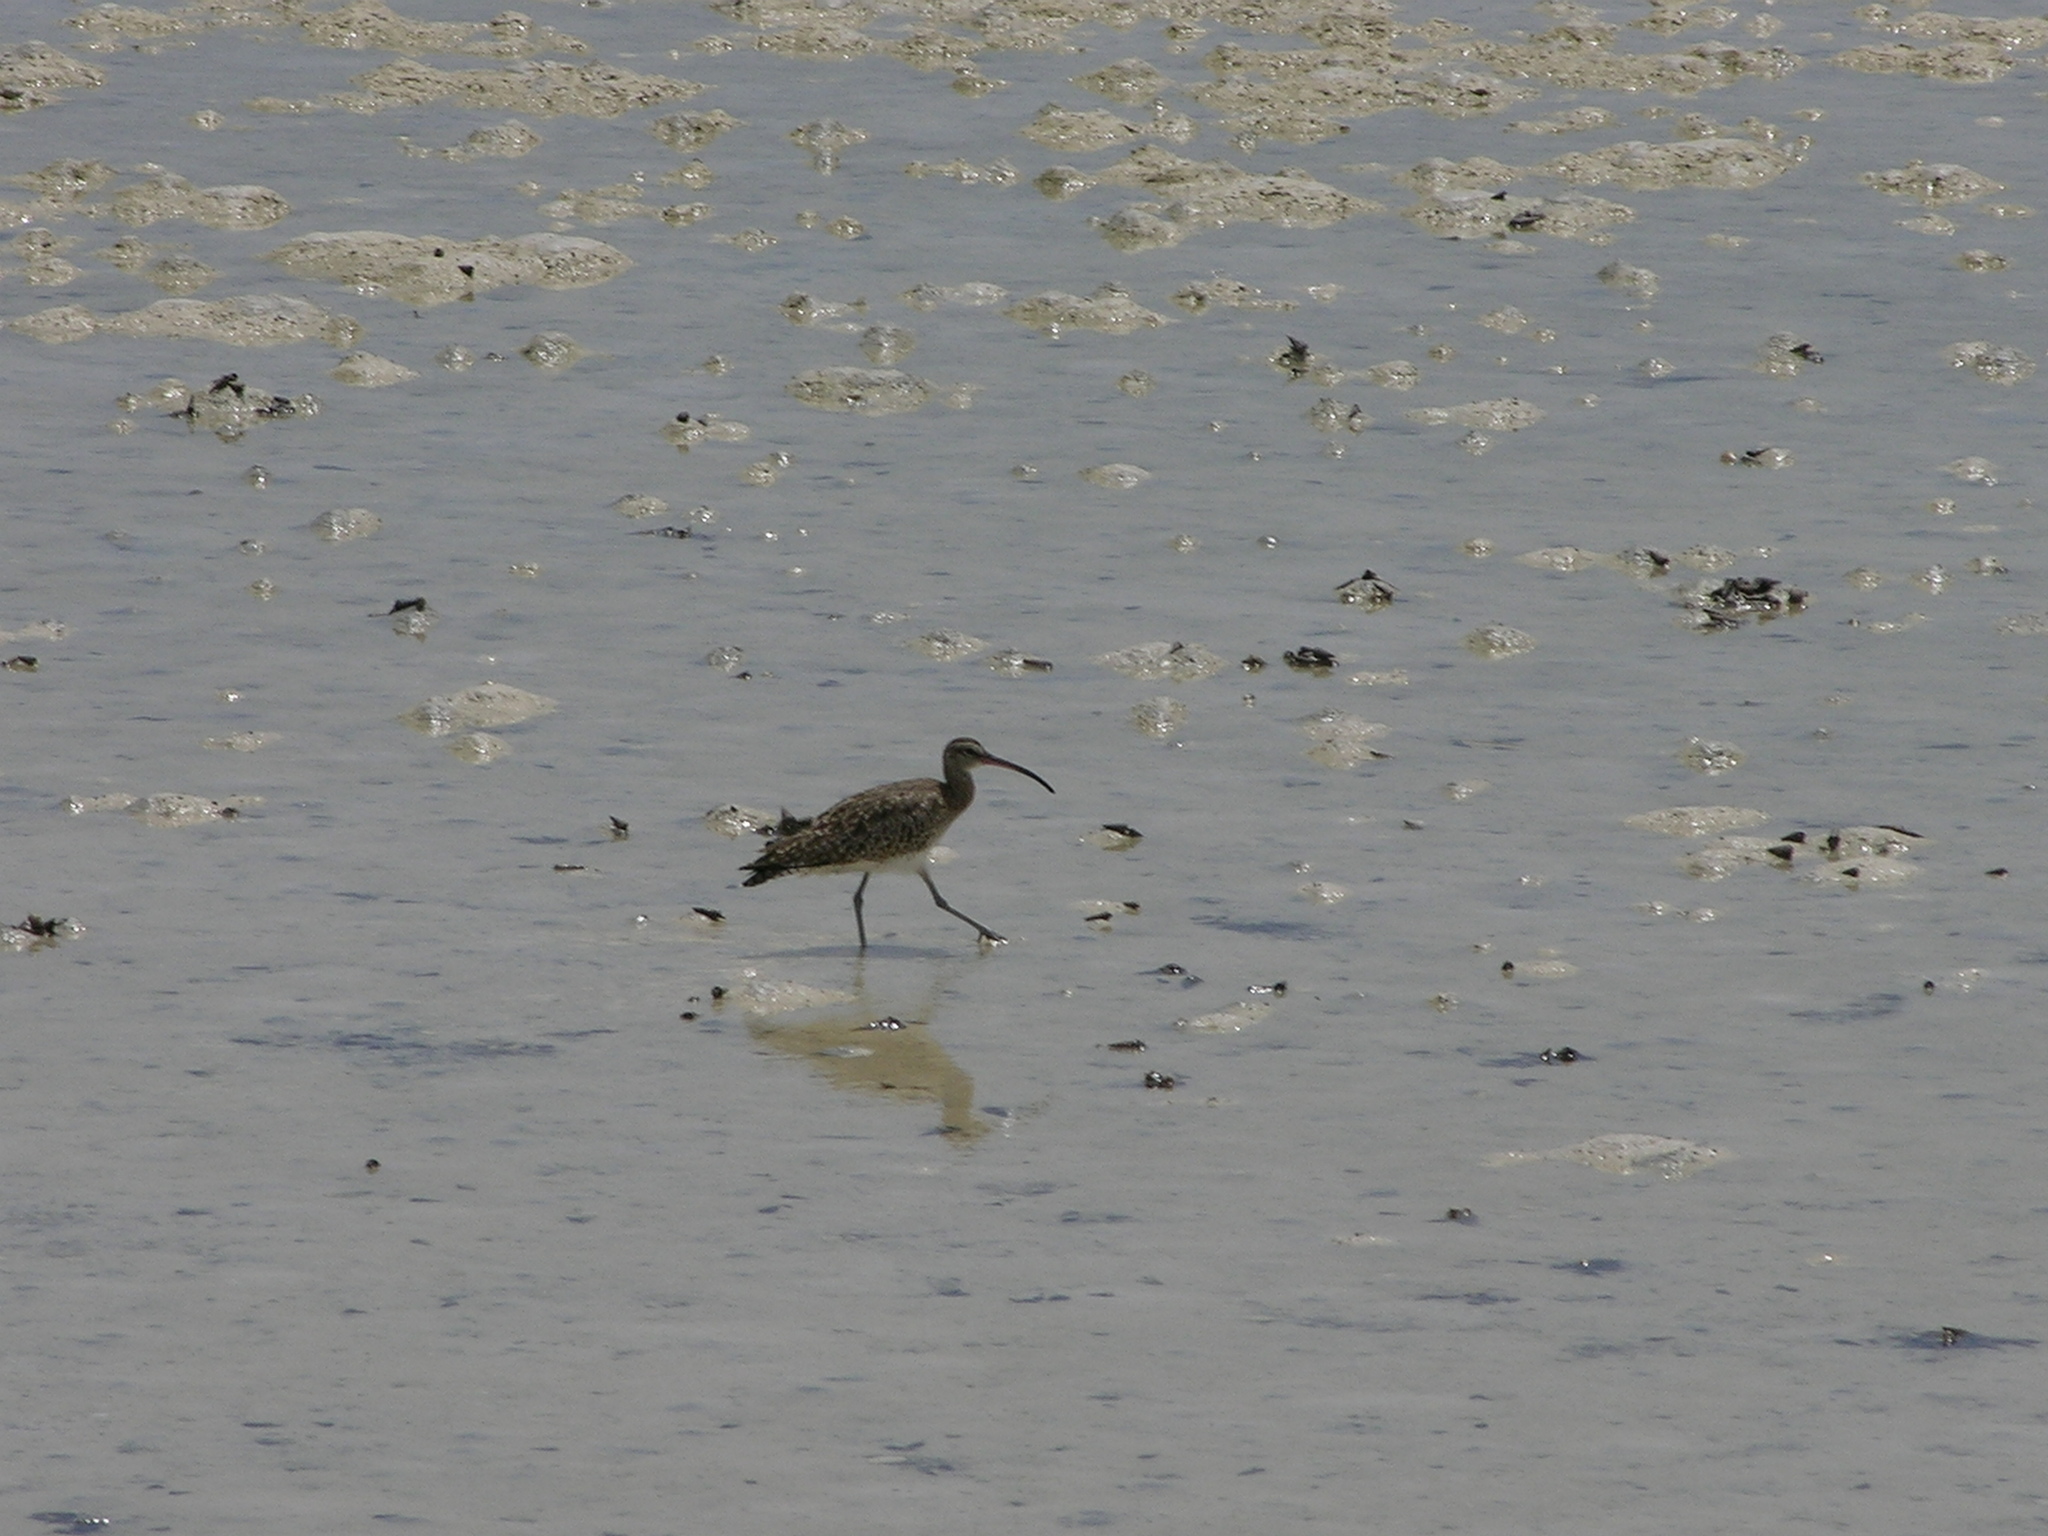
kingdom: Animalia
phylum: Chordata
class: Aves
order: Charadriiformes
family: Scolopacidae
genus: Numenius
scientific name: Numenius phaeopus
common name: Whimbrel
